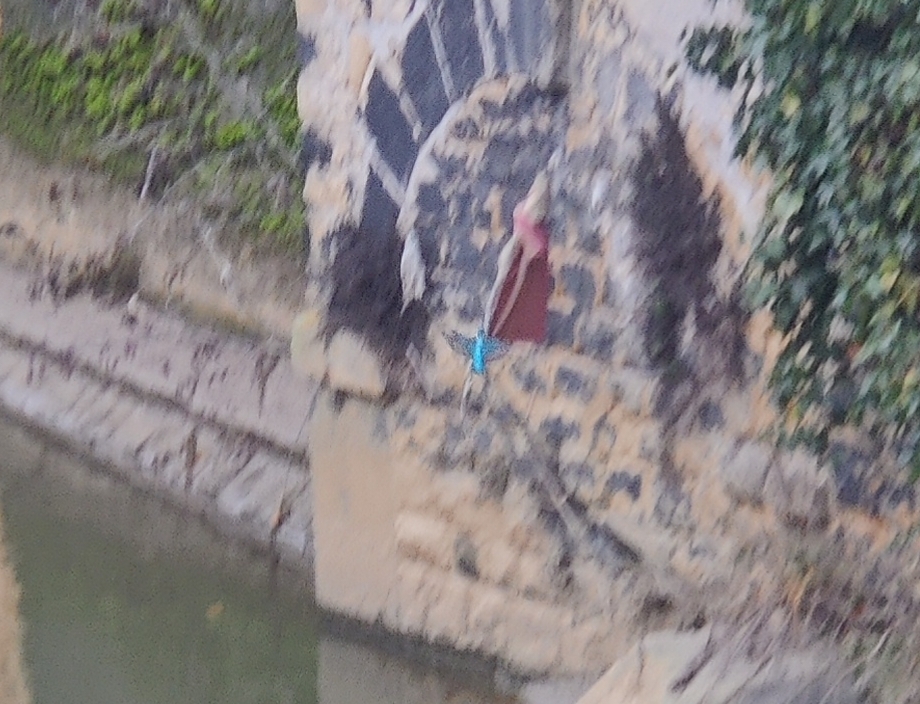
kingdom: Animalia
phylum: Chordata
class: Aves
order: Coraciiformes
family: Alcedinidae
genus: Alcedo
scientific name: Alcedo atthis
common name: Common kingfisher
